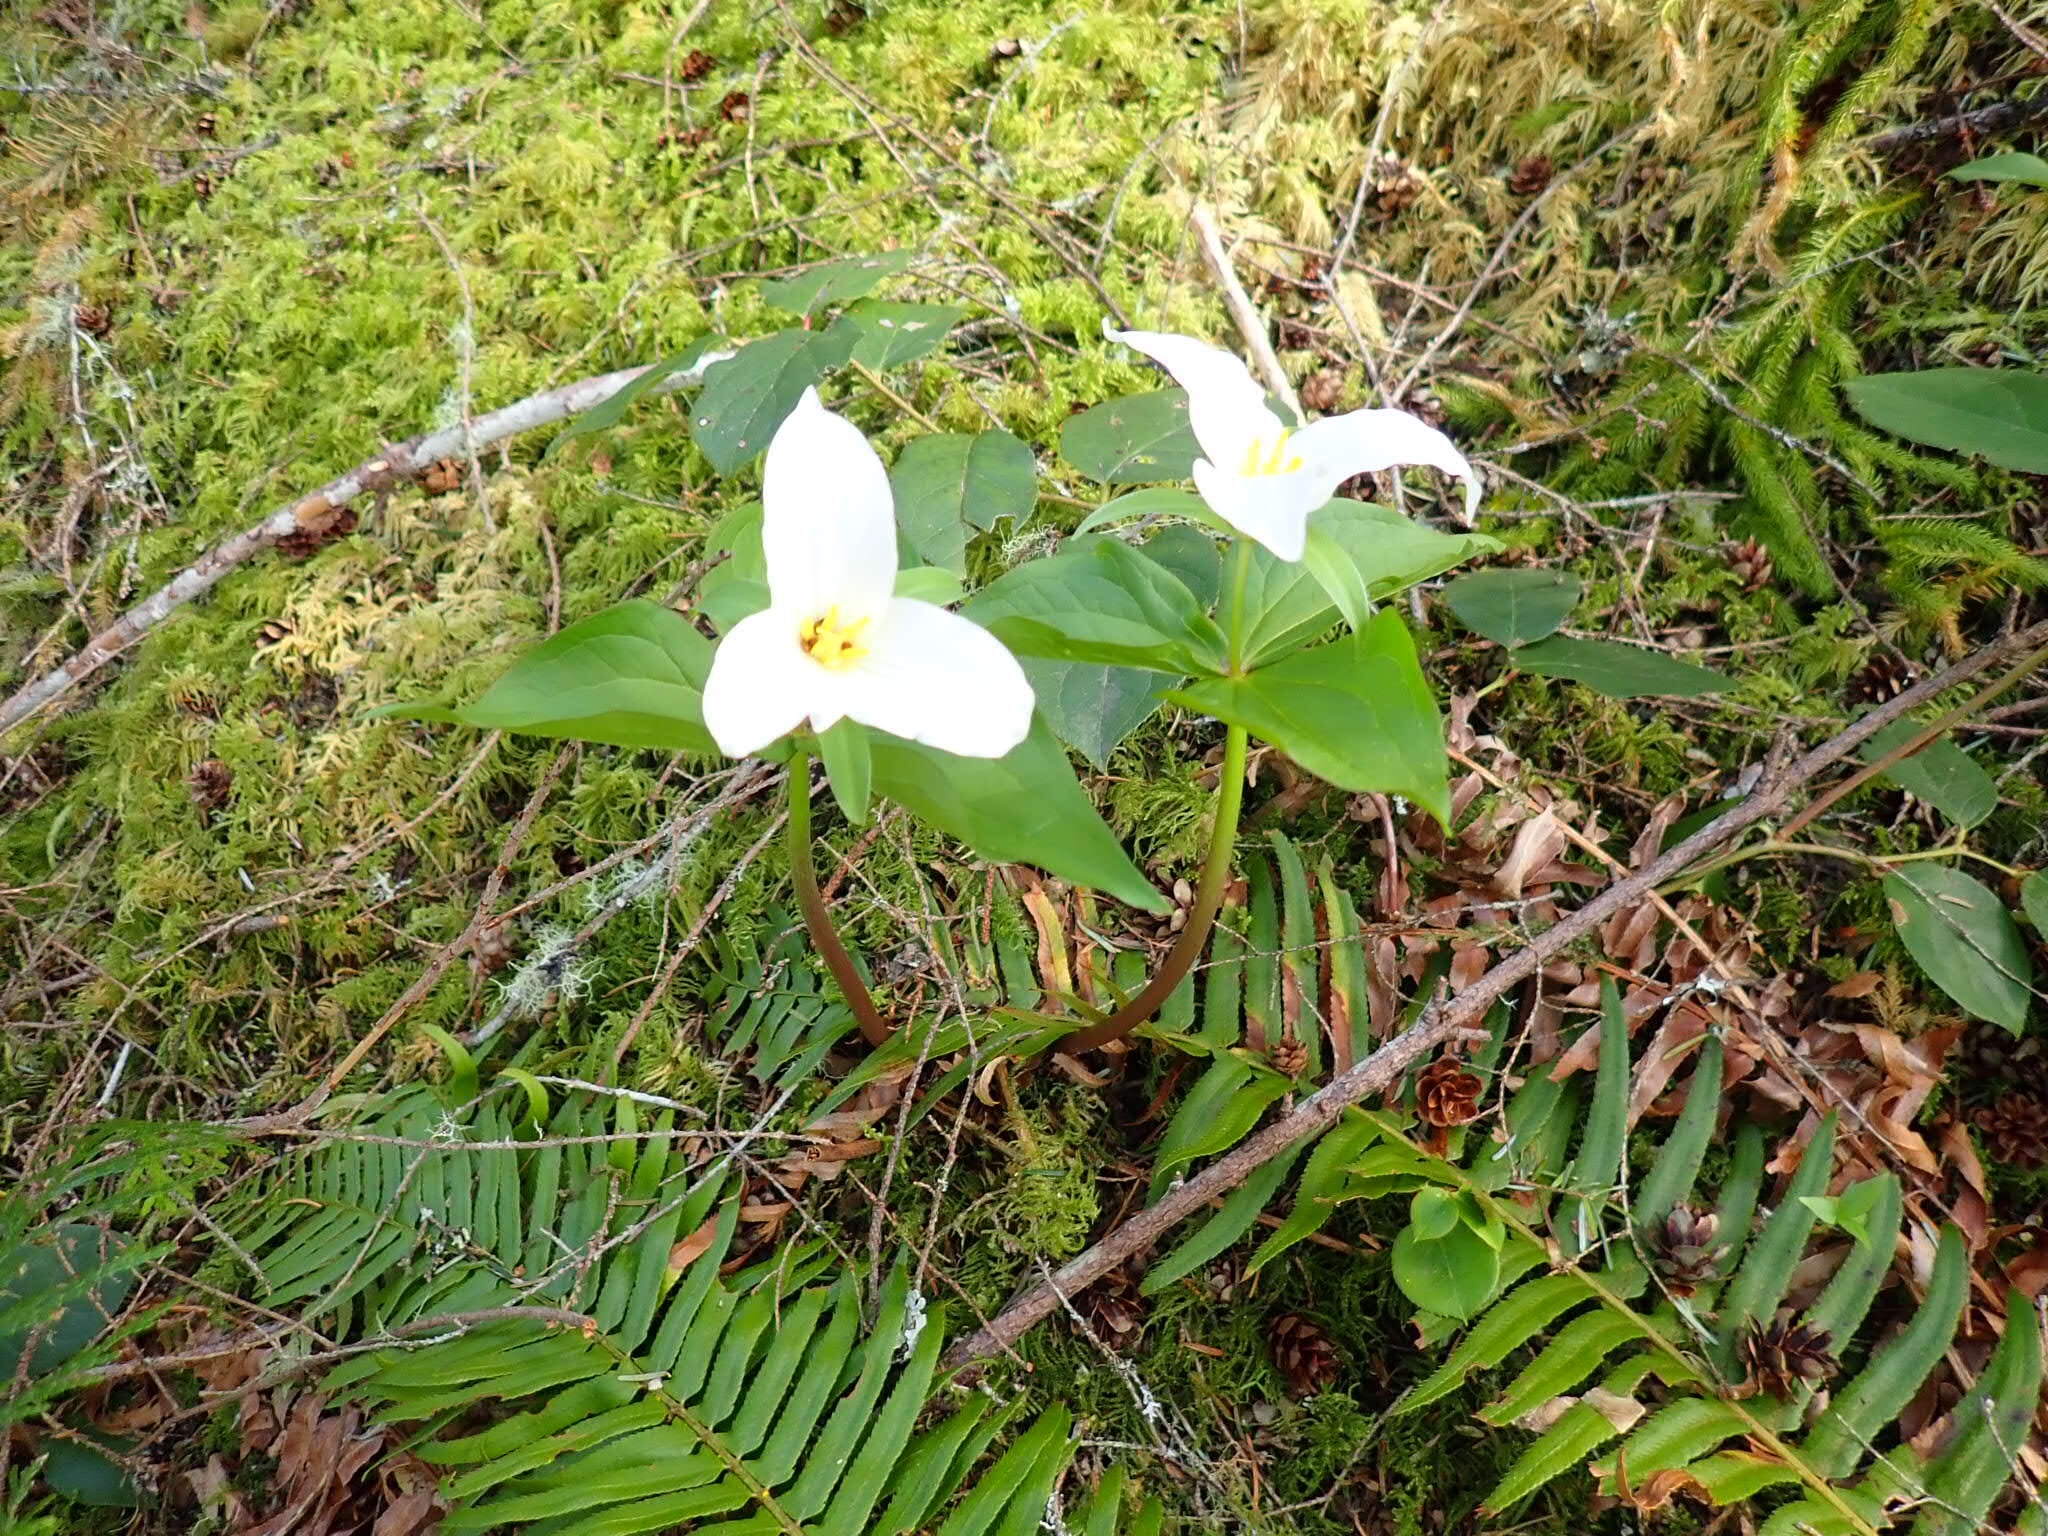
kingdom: Plantae
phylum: Tracheophyta
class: Liliopsida
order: Liliales
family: Melanthiaceae
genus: Trillium
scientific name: Trillium ovatum
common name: Pacific trillium
